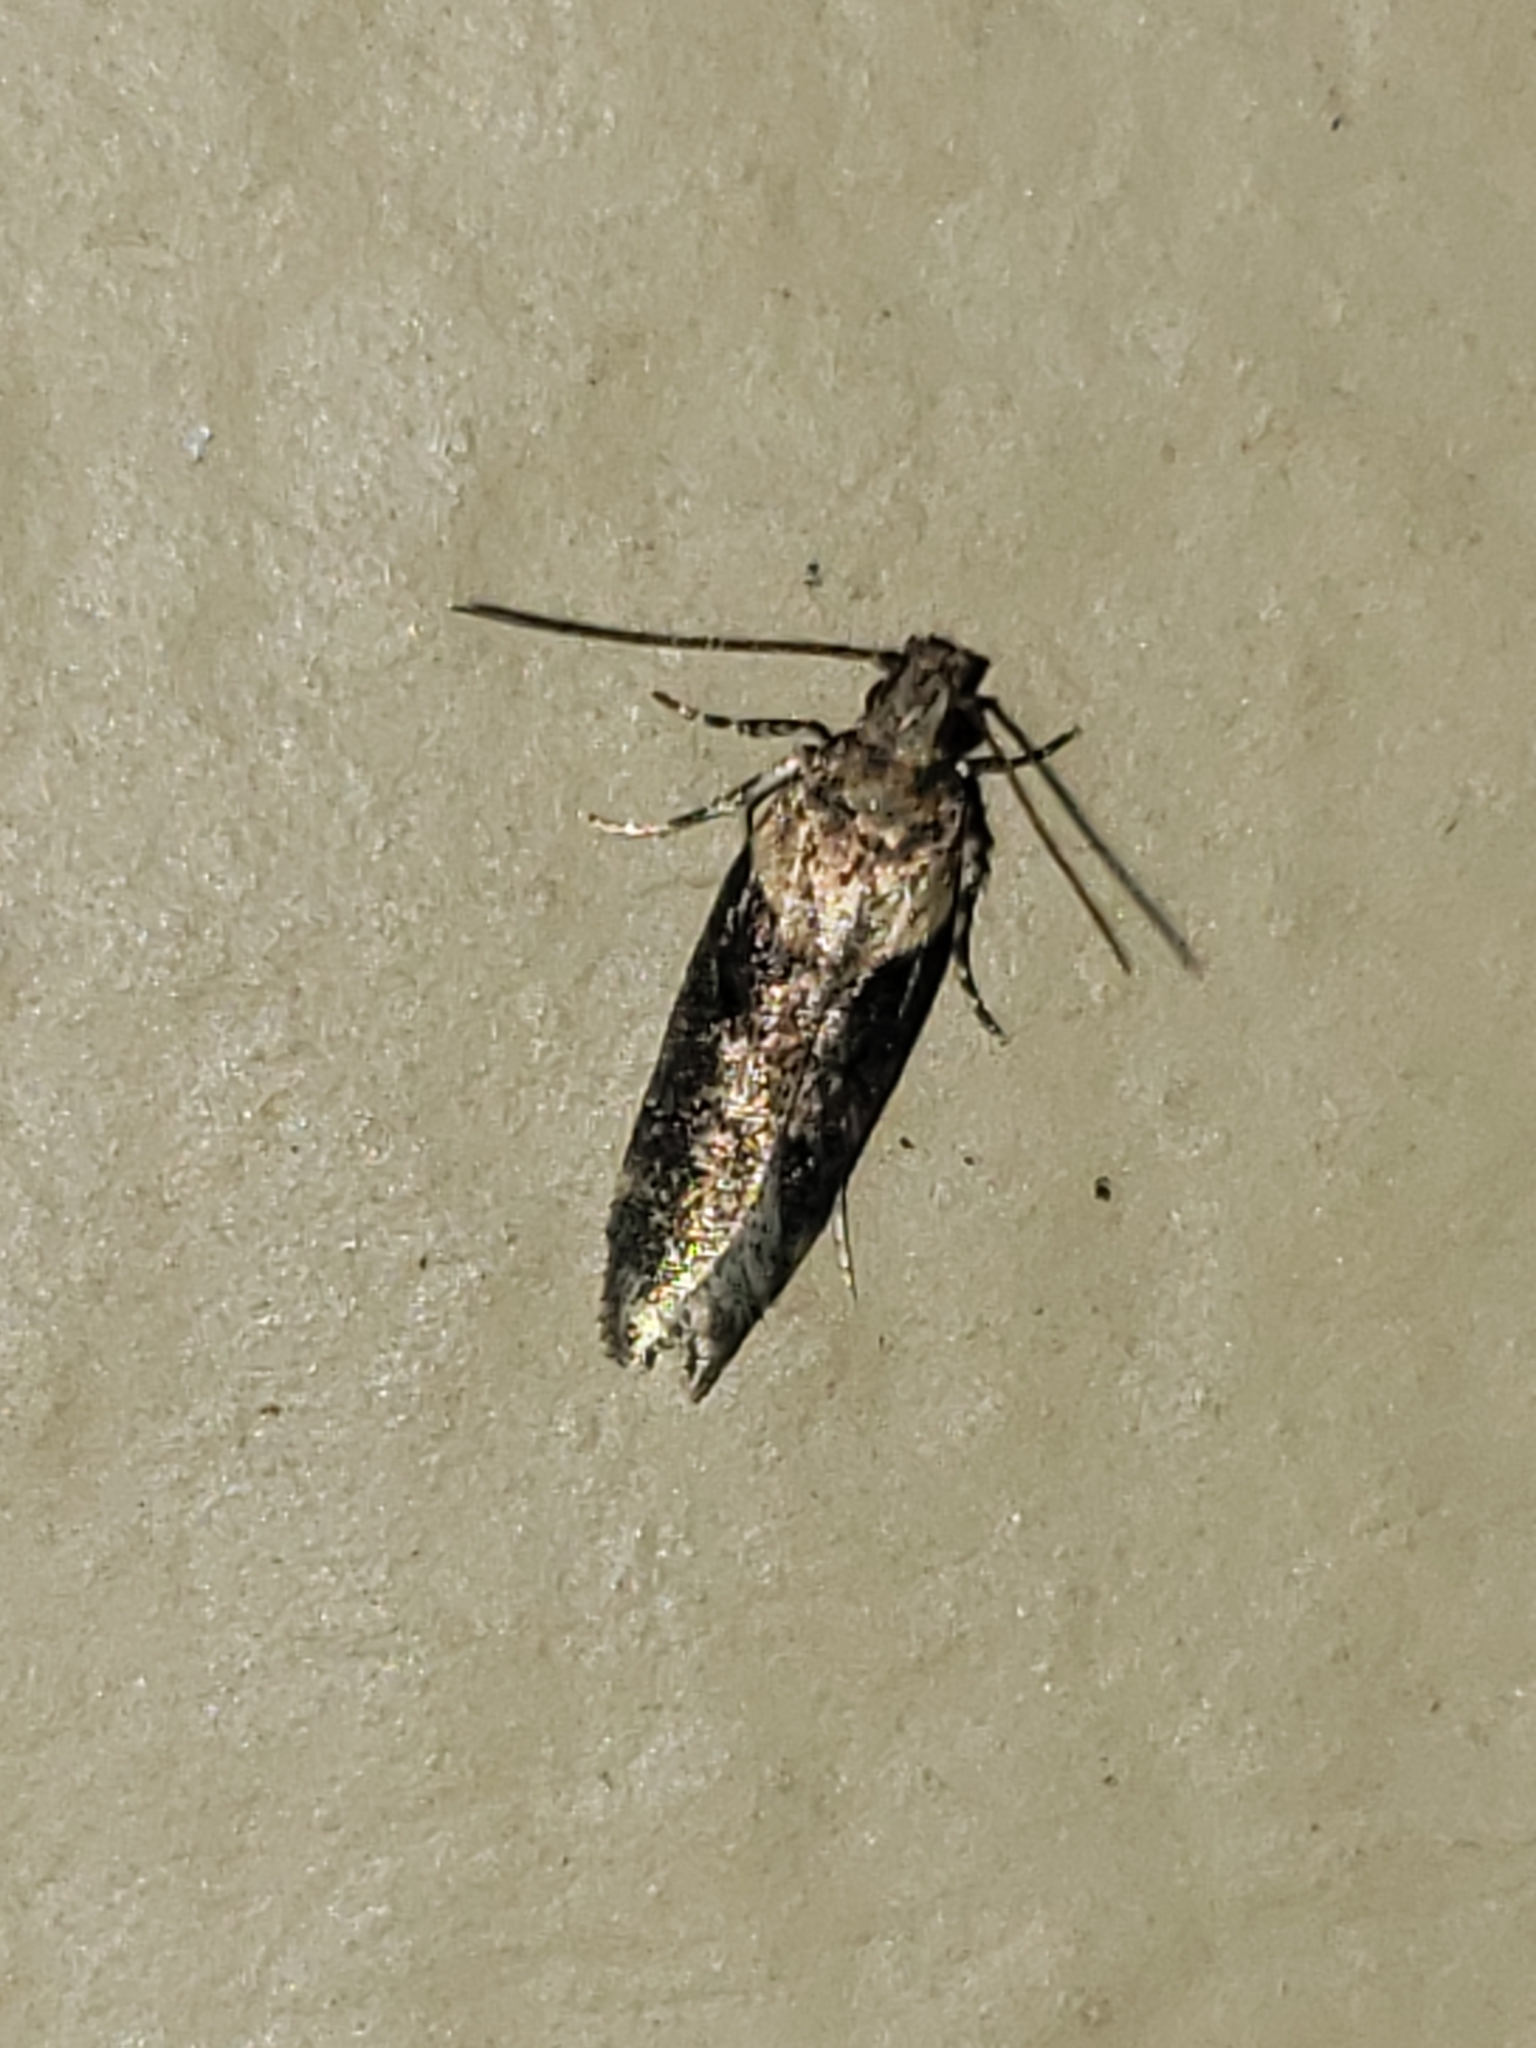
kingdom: Animalia
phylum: Arthropoda
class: Insecta
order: Lepidoptera
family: Gelechiidae
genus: Chionodes
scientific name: Chionodes mediofuscella
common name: Black-smudged chionodes moth
